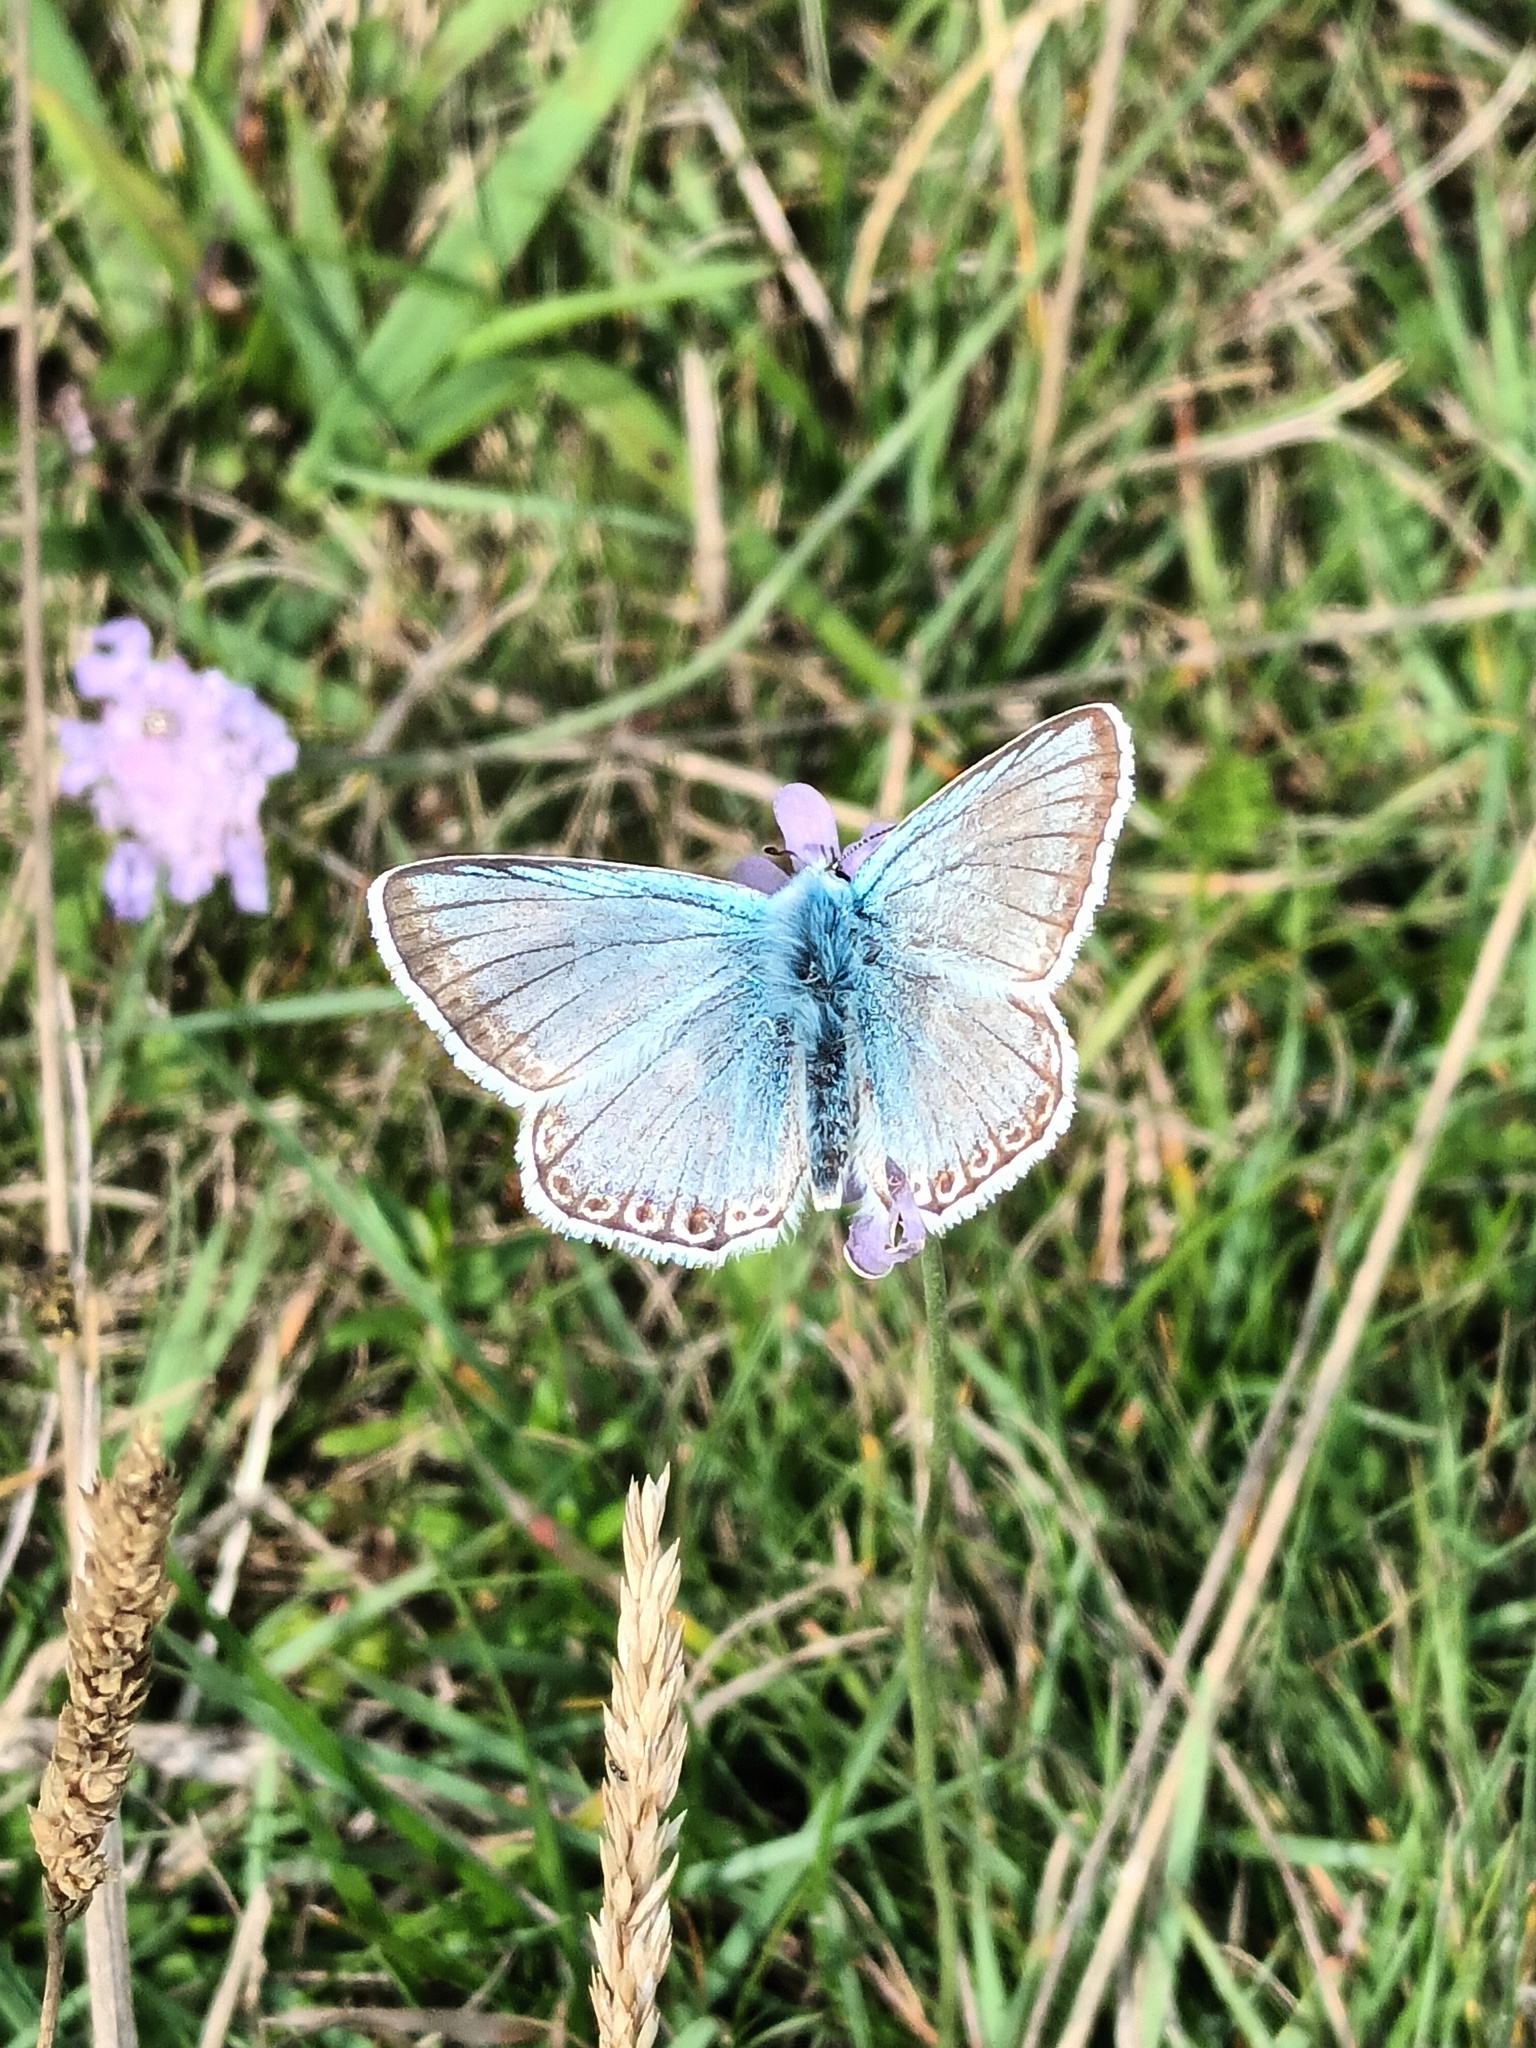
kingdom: Animalia
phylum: Arthropoda
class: Insecta
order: Lepidoptera
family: Lycaenidae
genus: Lysandra
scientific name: Lysandra coridon
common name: Chalkhill blue
